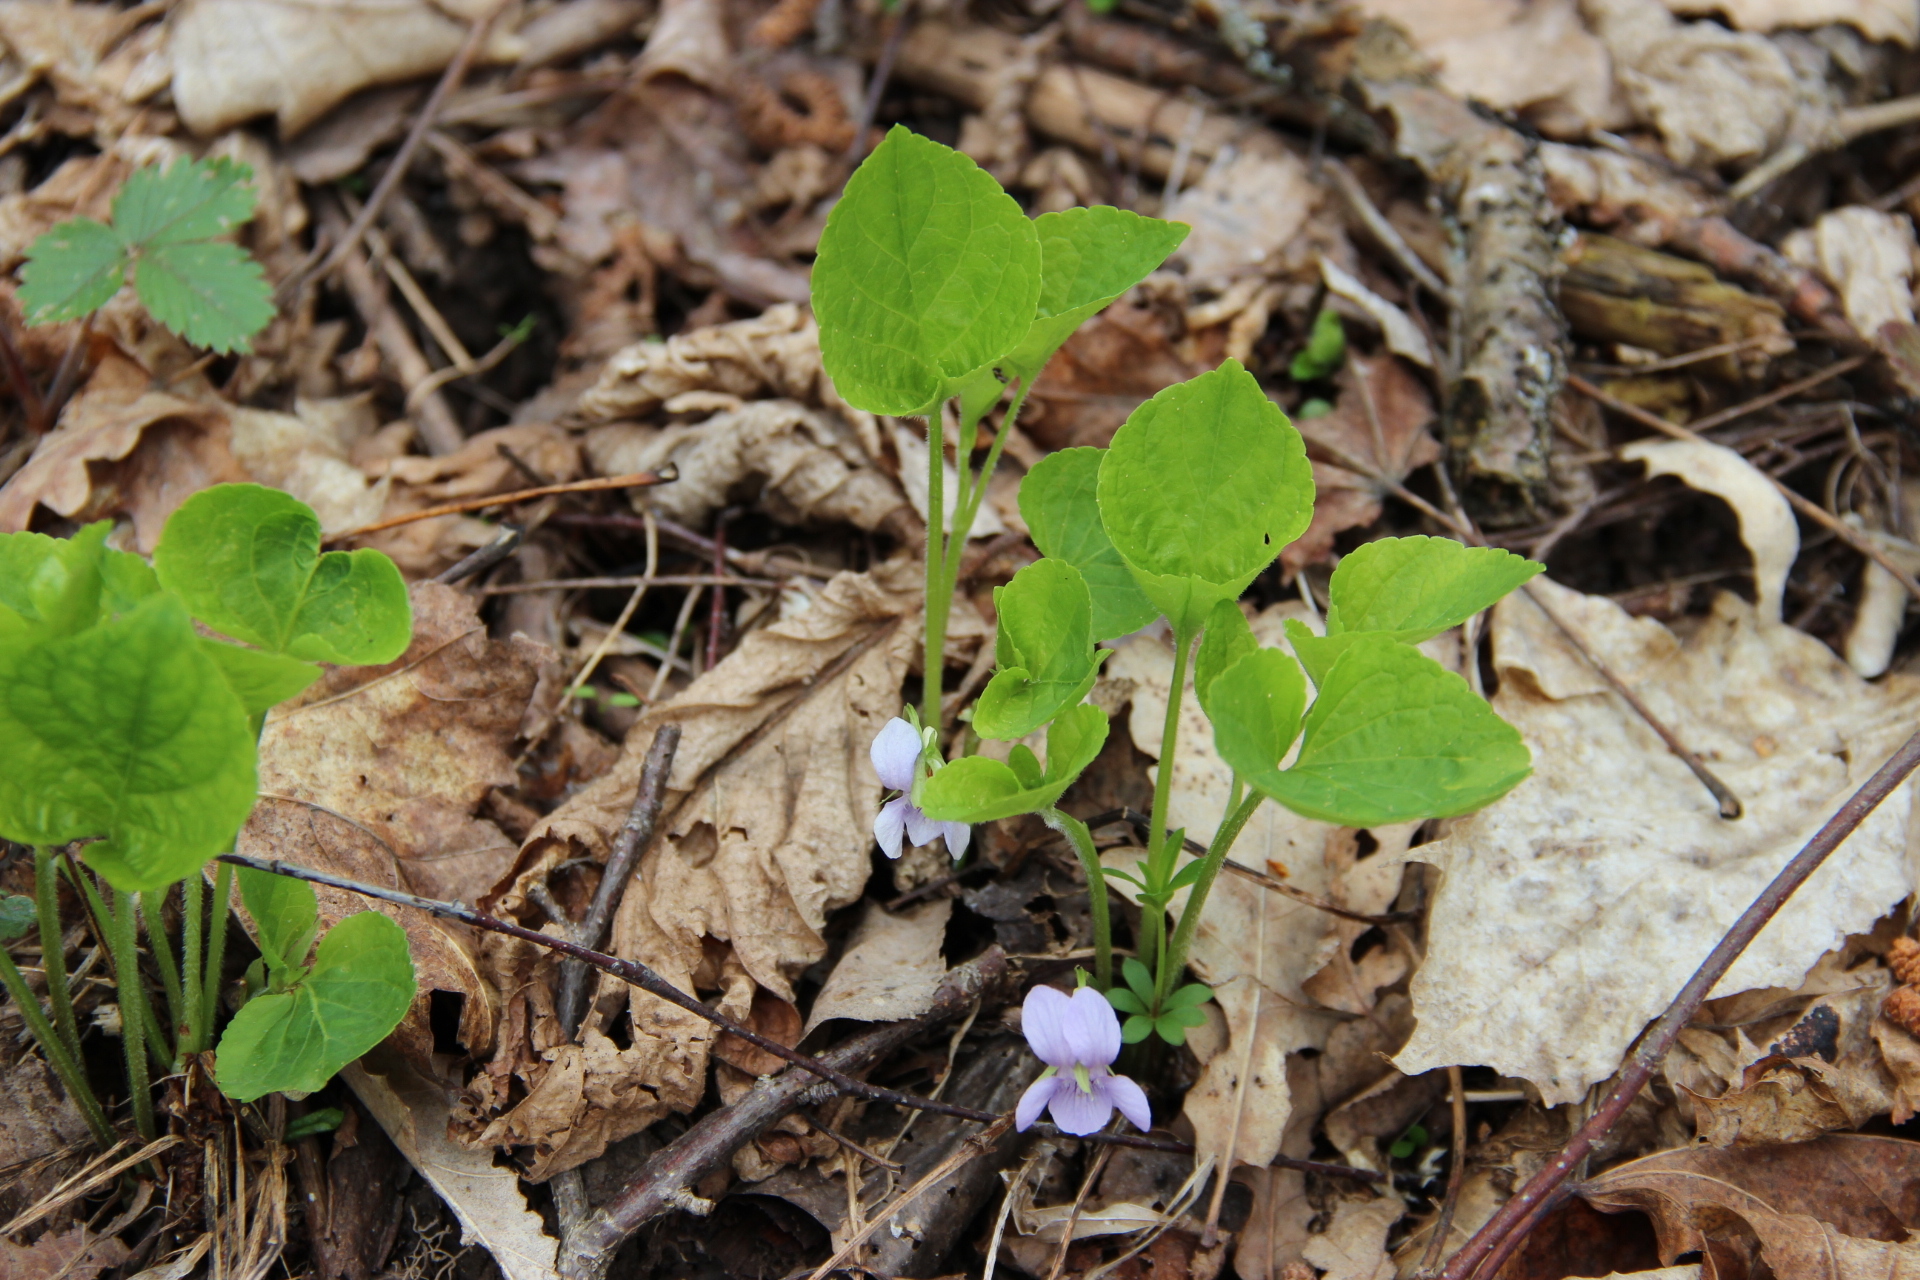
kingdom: Plantae
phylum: Tracheophyta
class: Magnoliopsida
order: Malpighiales
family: Violaceae
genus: Viola
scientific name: Viola mirabilis
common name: Wonder violet
